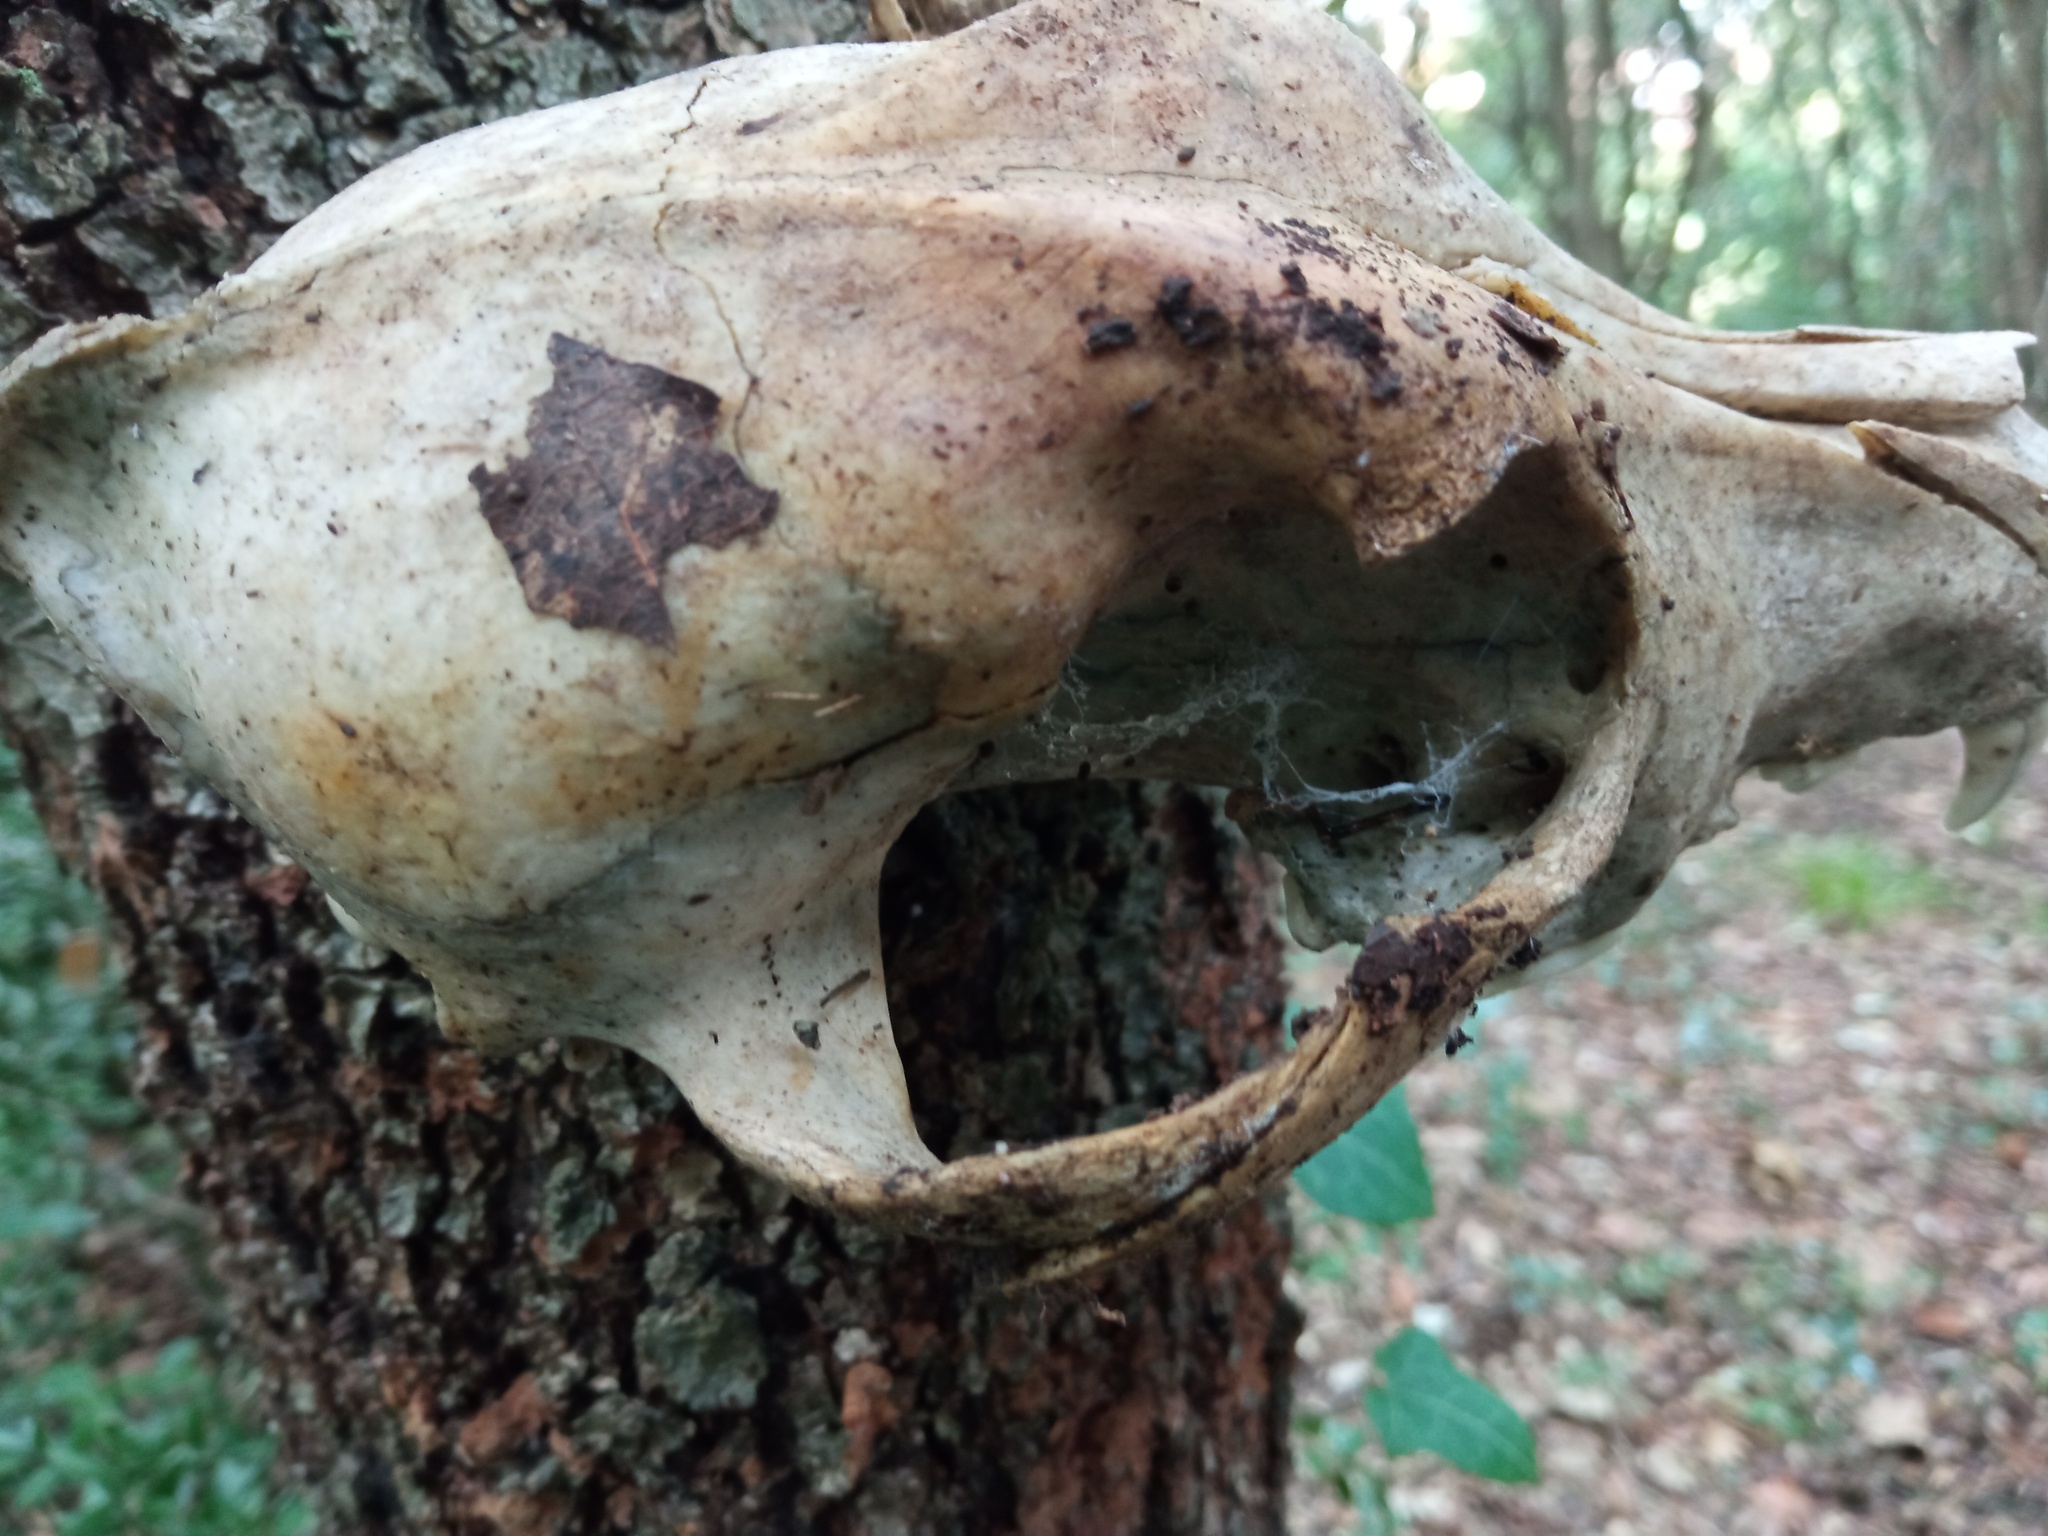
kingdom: Animalia
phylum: Chordata
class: Mammalia
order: Carnivora
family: Canidae
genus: Canis
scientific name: Canis lupus
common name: Gray wolf
